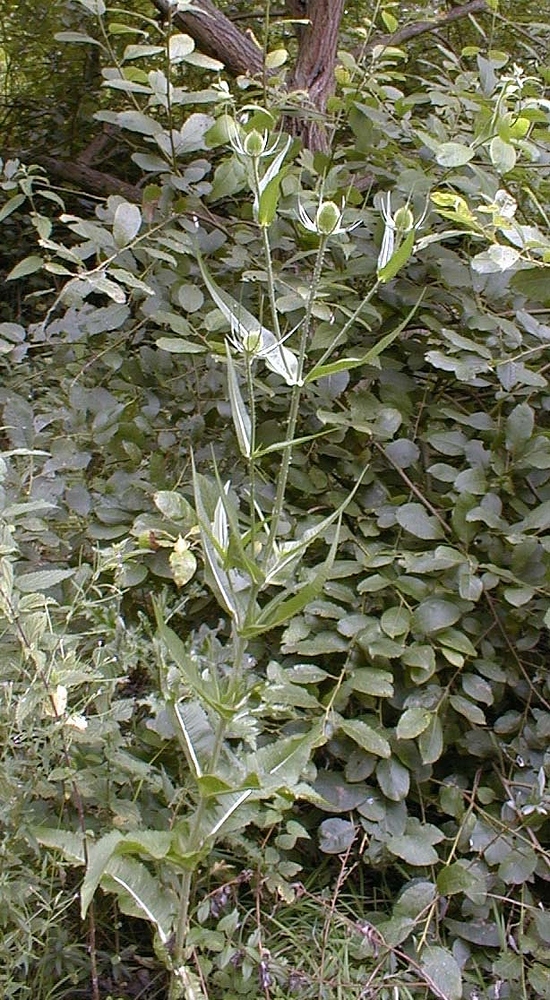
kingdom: Plantae
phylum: Tracheophyta
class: Magnoliopsida
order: Dipsacales
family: Caprifoliaceae
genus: Dipsacus
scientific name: Dipsacus fullonum
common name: Teasel
